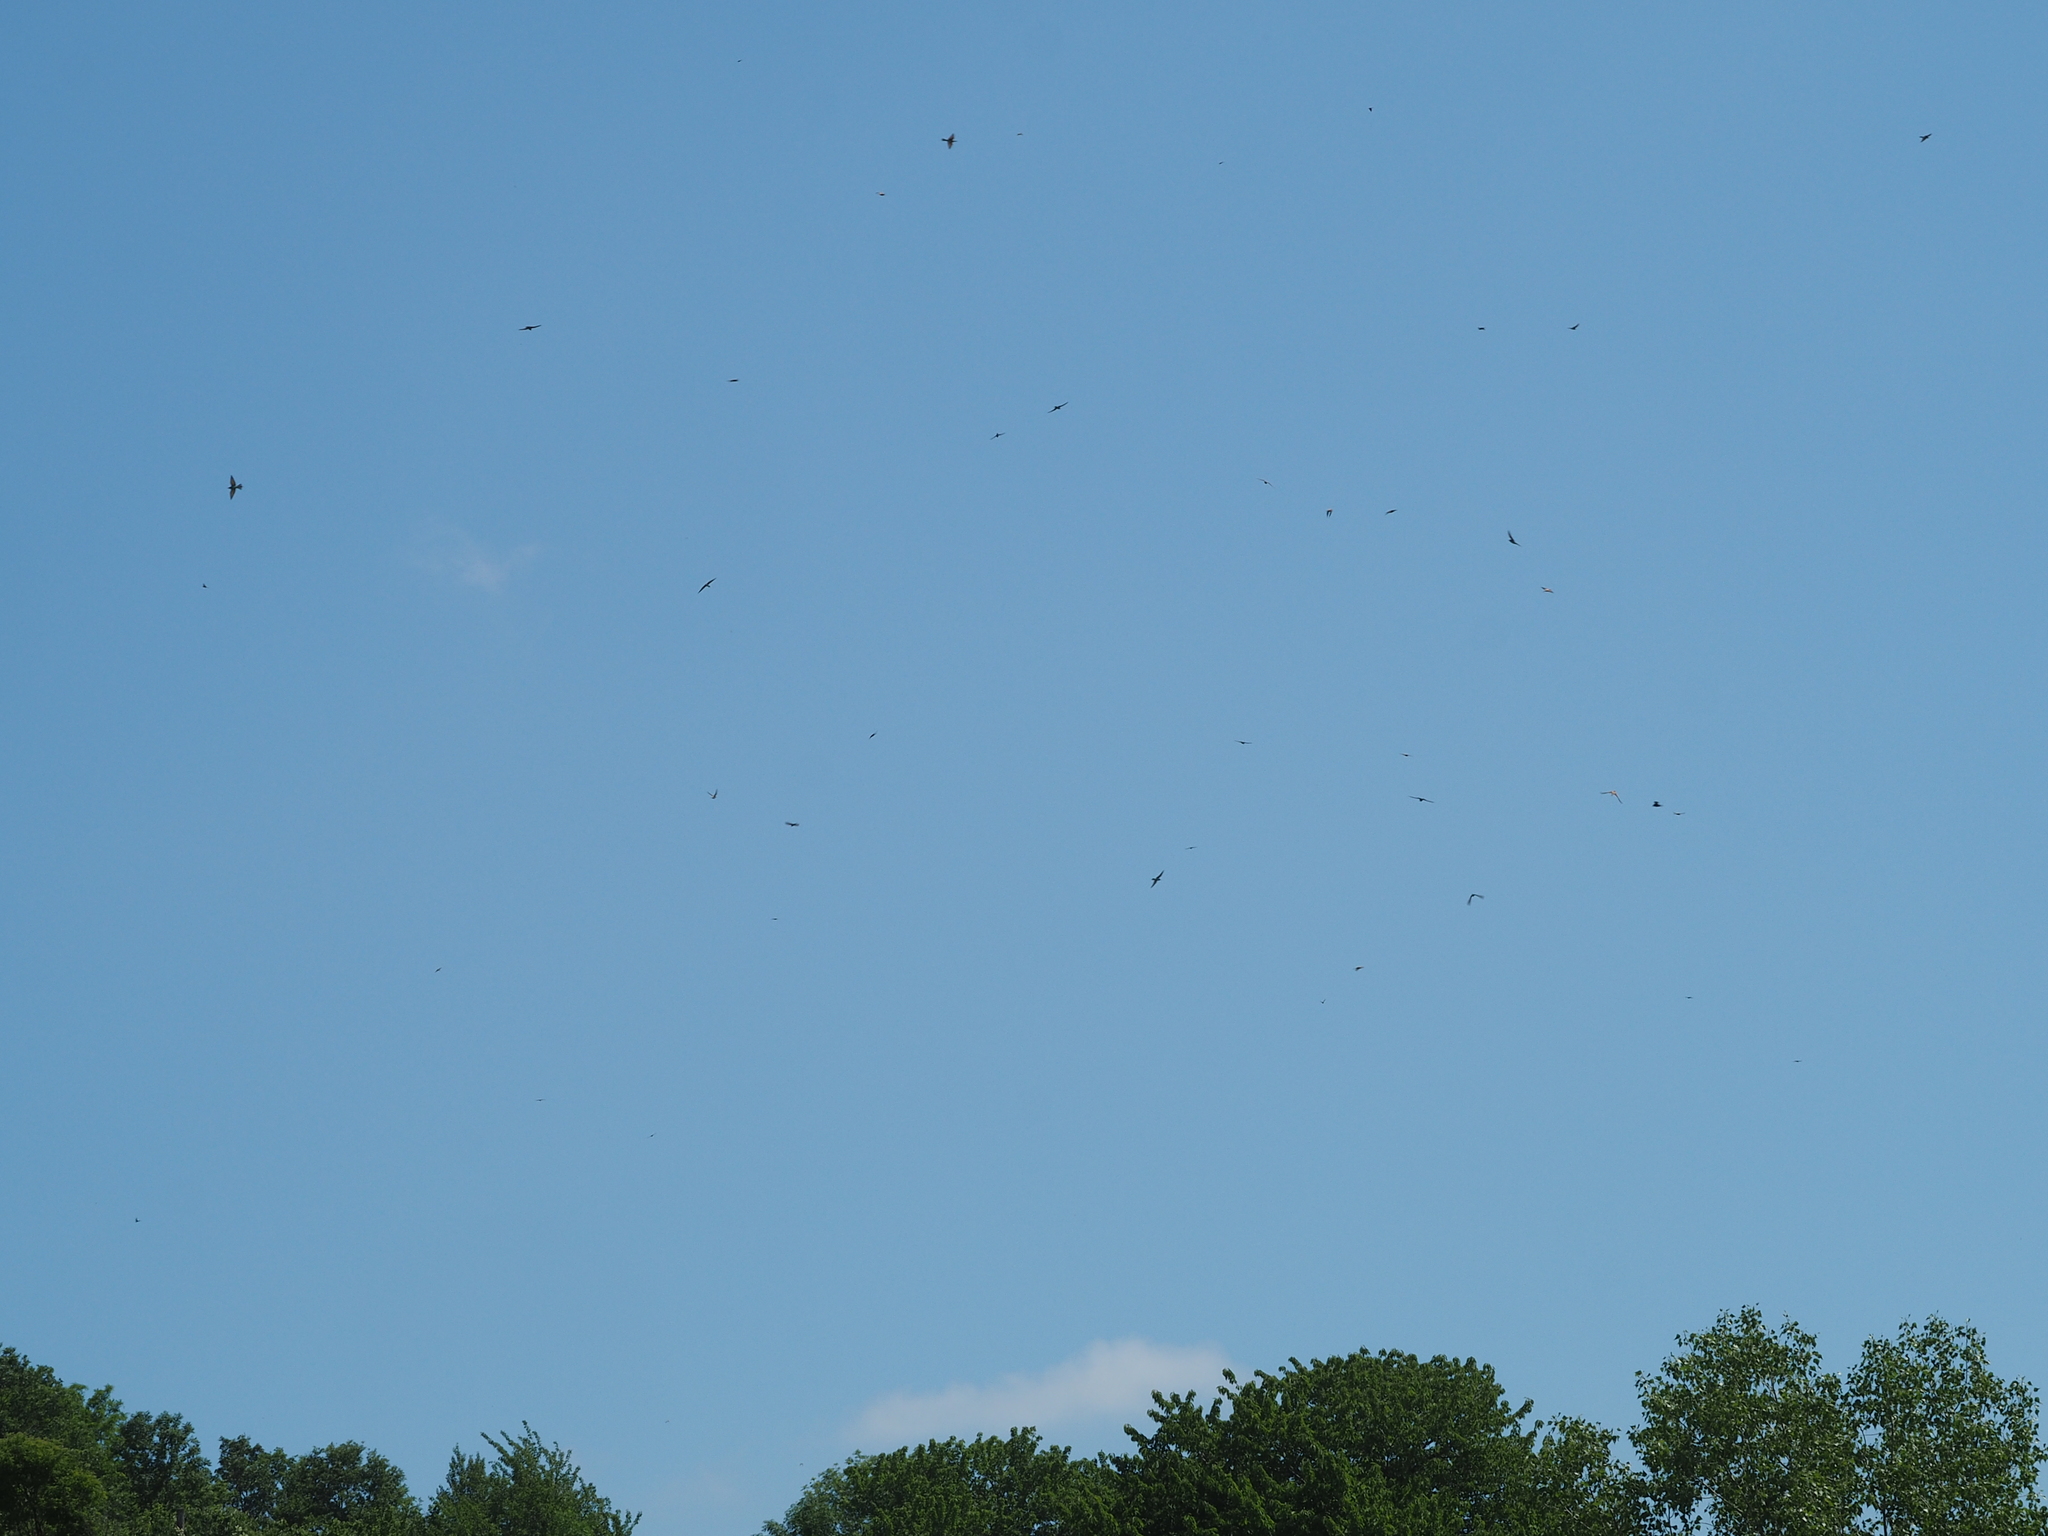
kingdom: Animalia
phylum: Chordata
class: Aves
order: Coraciiformes
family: Meropidae
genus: Merops
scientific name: Merops apiaster
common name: European bee-eater
